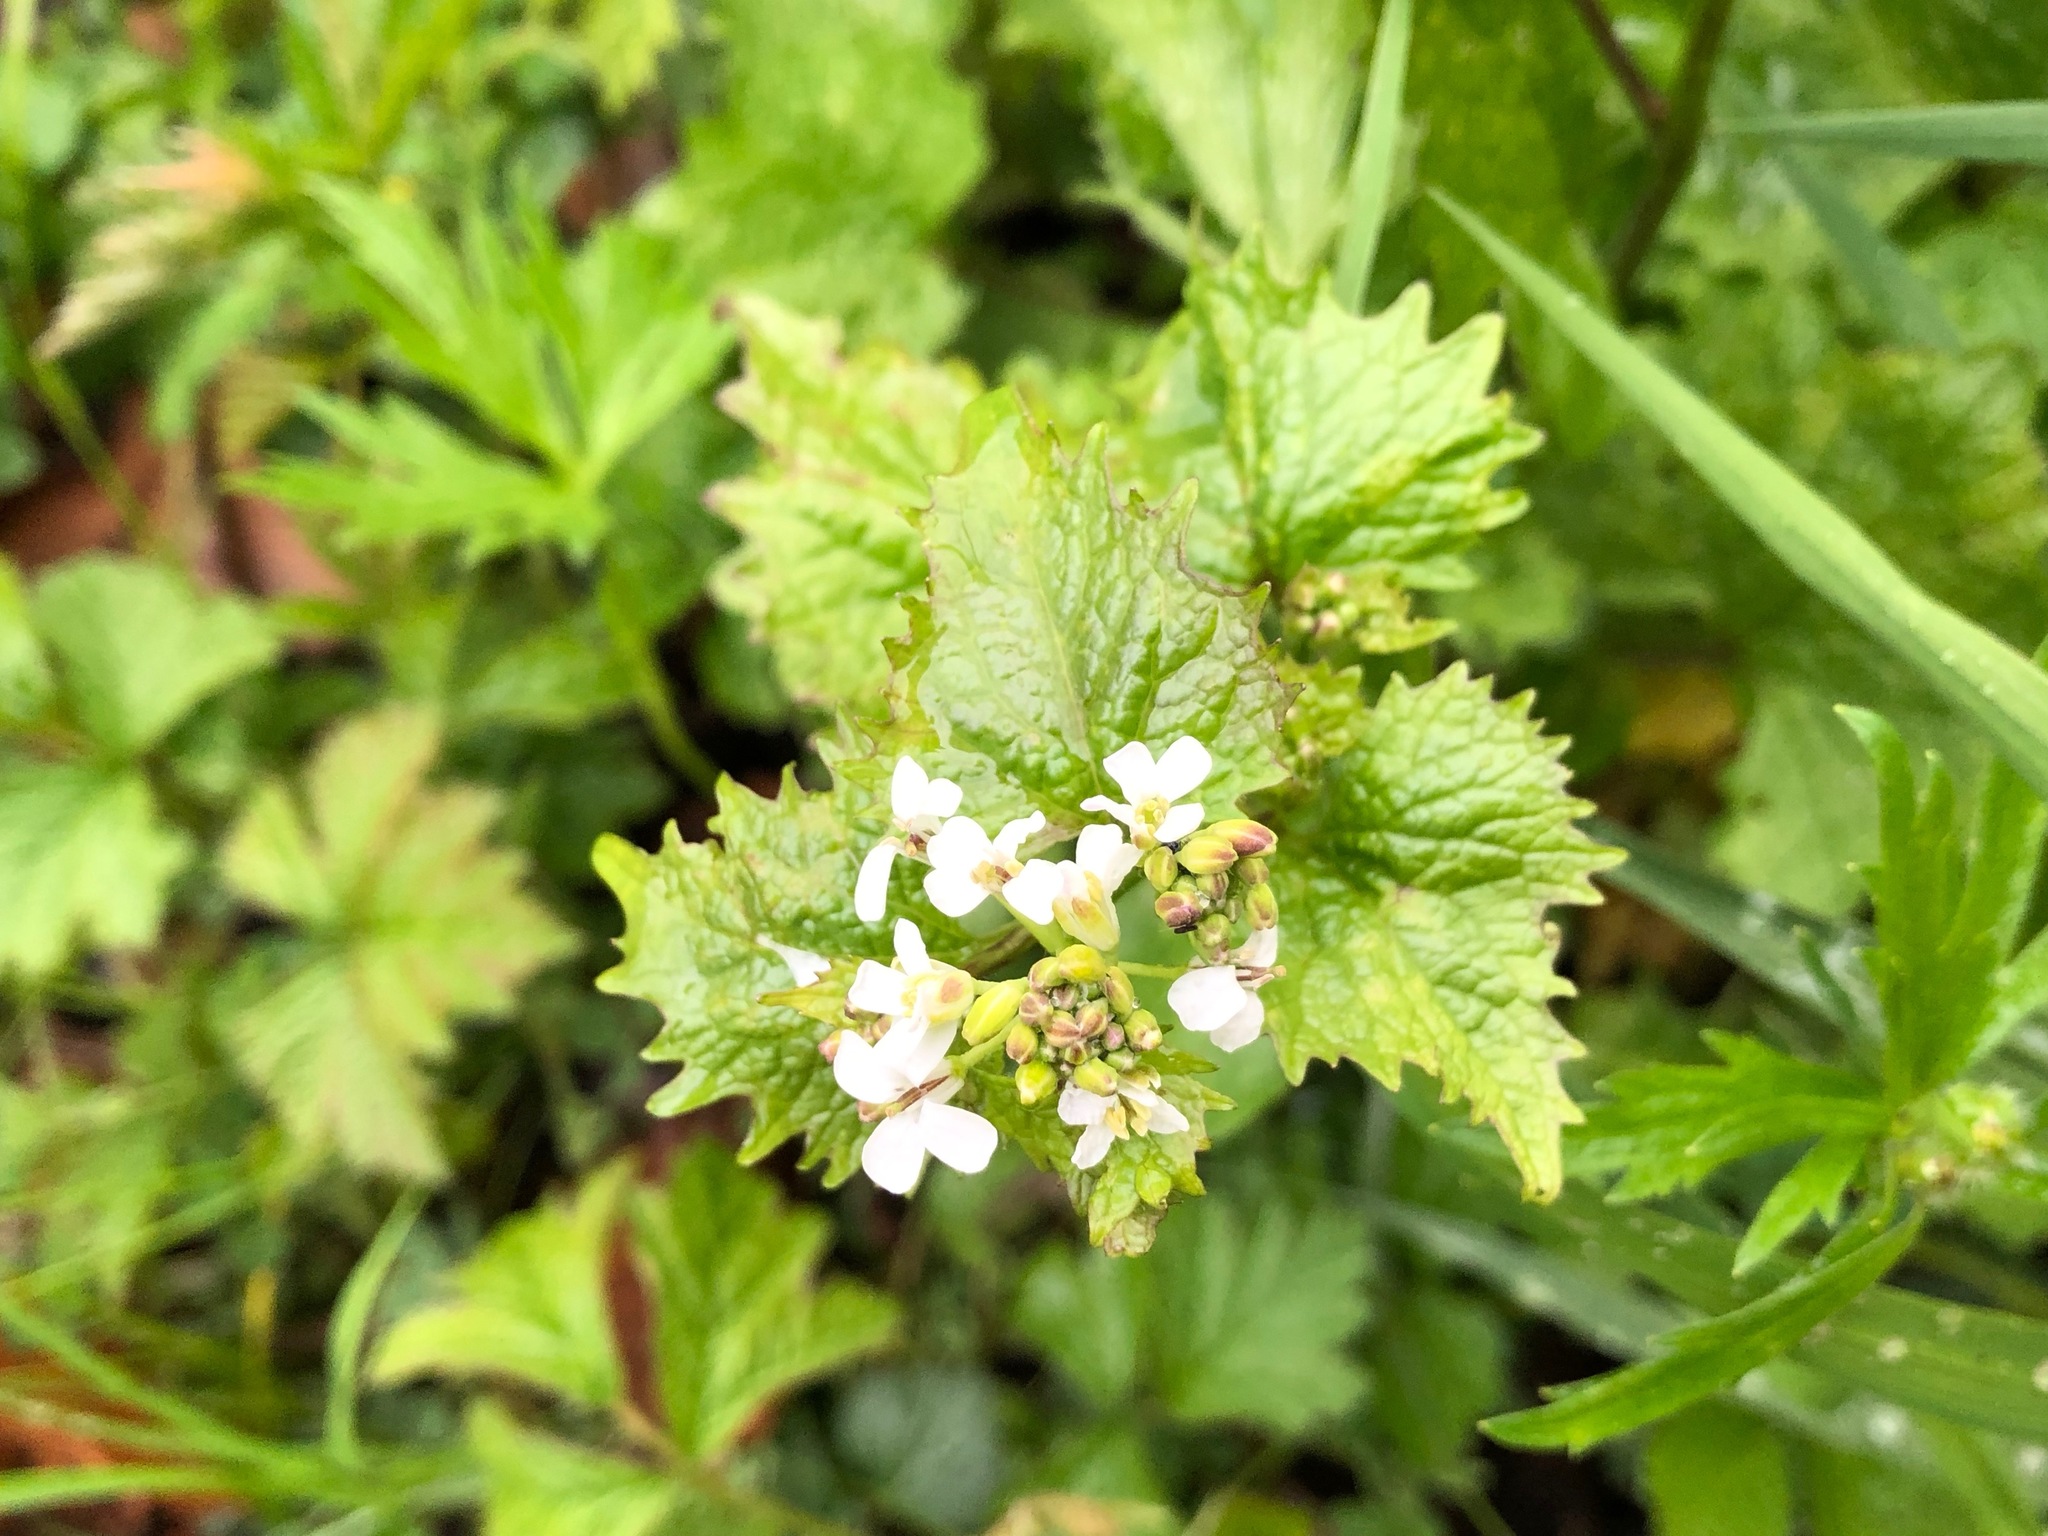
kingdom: Plantae
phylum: Tracheophyta
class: Magnoliopsida
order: Brassicales
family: Brassicaceae
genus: Alliaria
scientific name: Alliaria petiolata
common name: Garlic mustard
